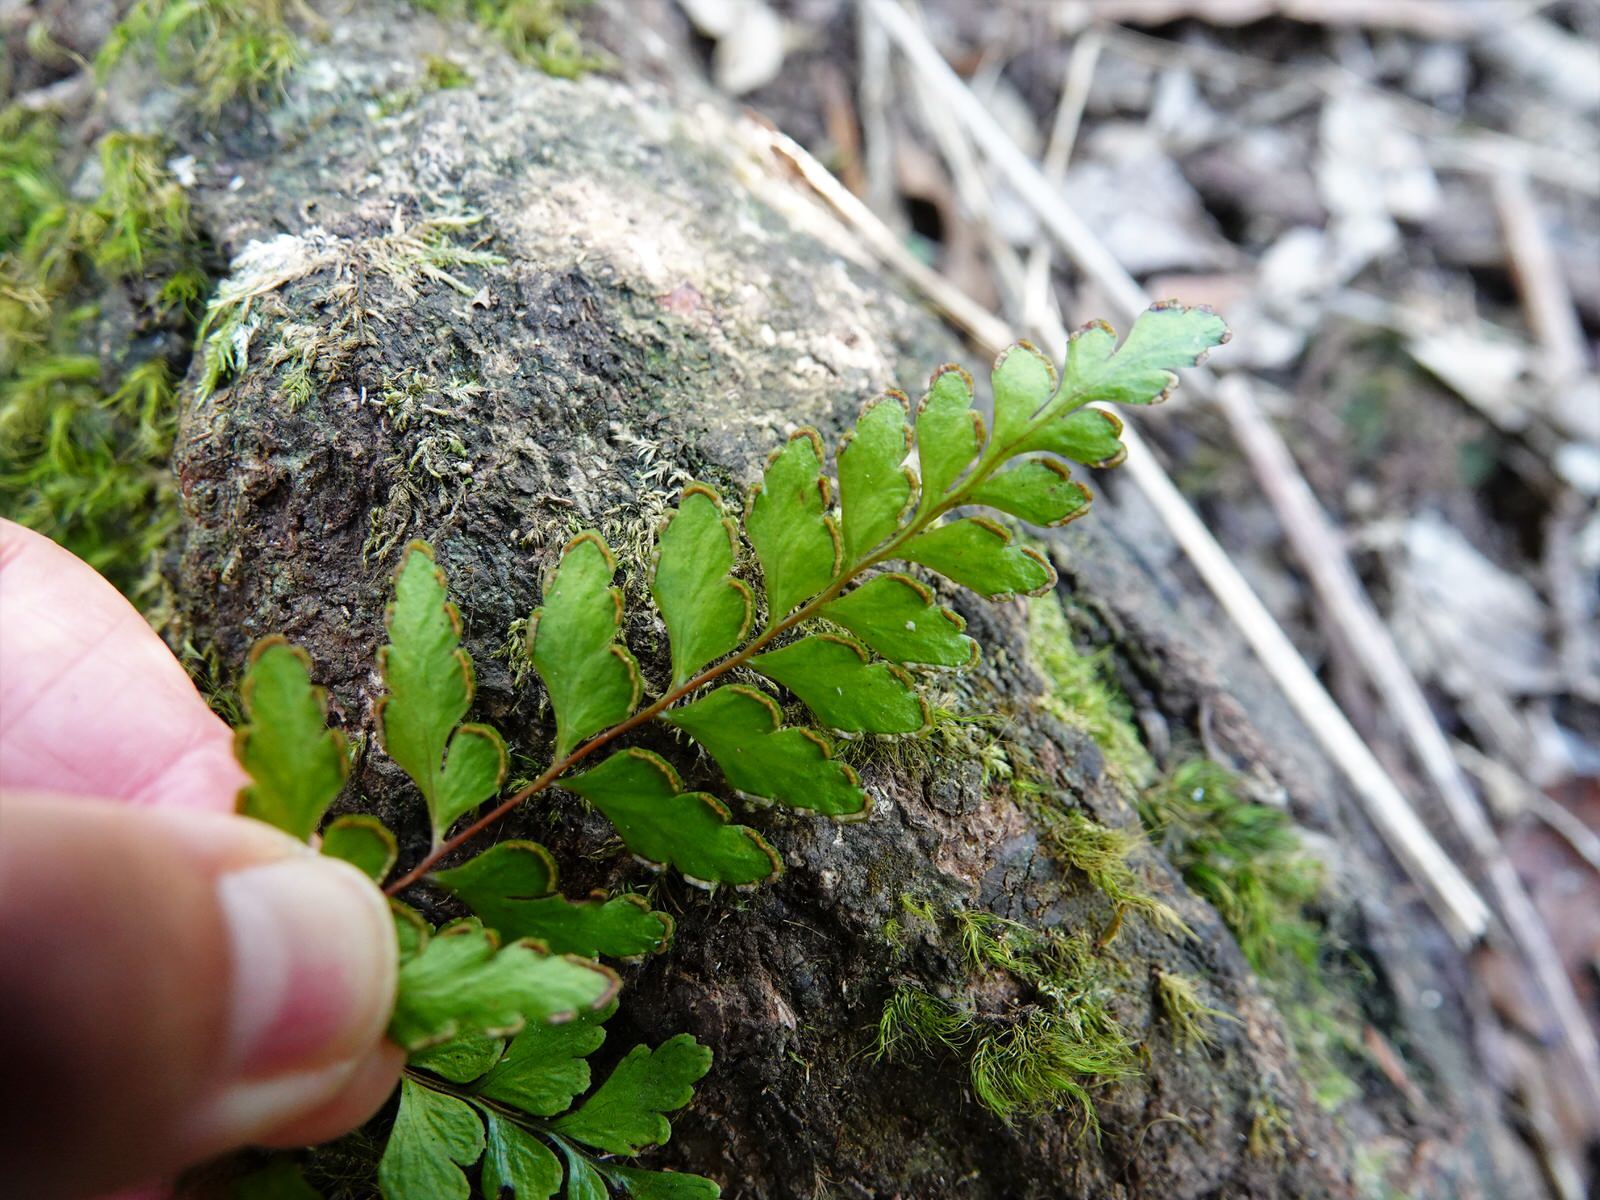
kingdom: Plantae
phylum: Tracheophyta
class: Polypodiopsida
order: Polypodiales
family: Lindsaeaceae
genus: Lindsaea
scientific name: Lindsaea trichomanoides
